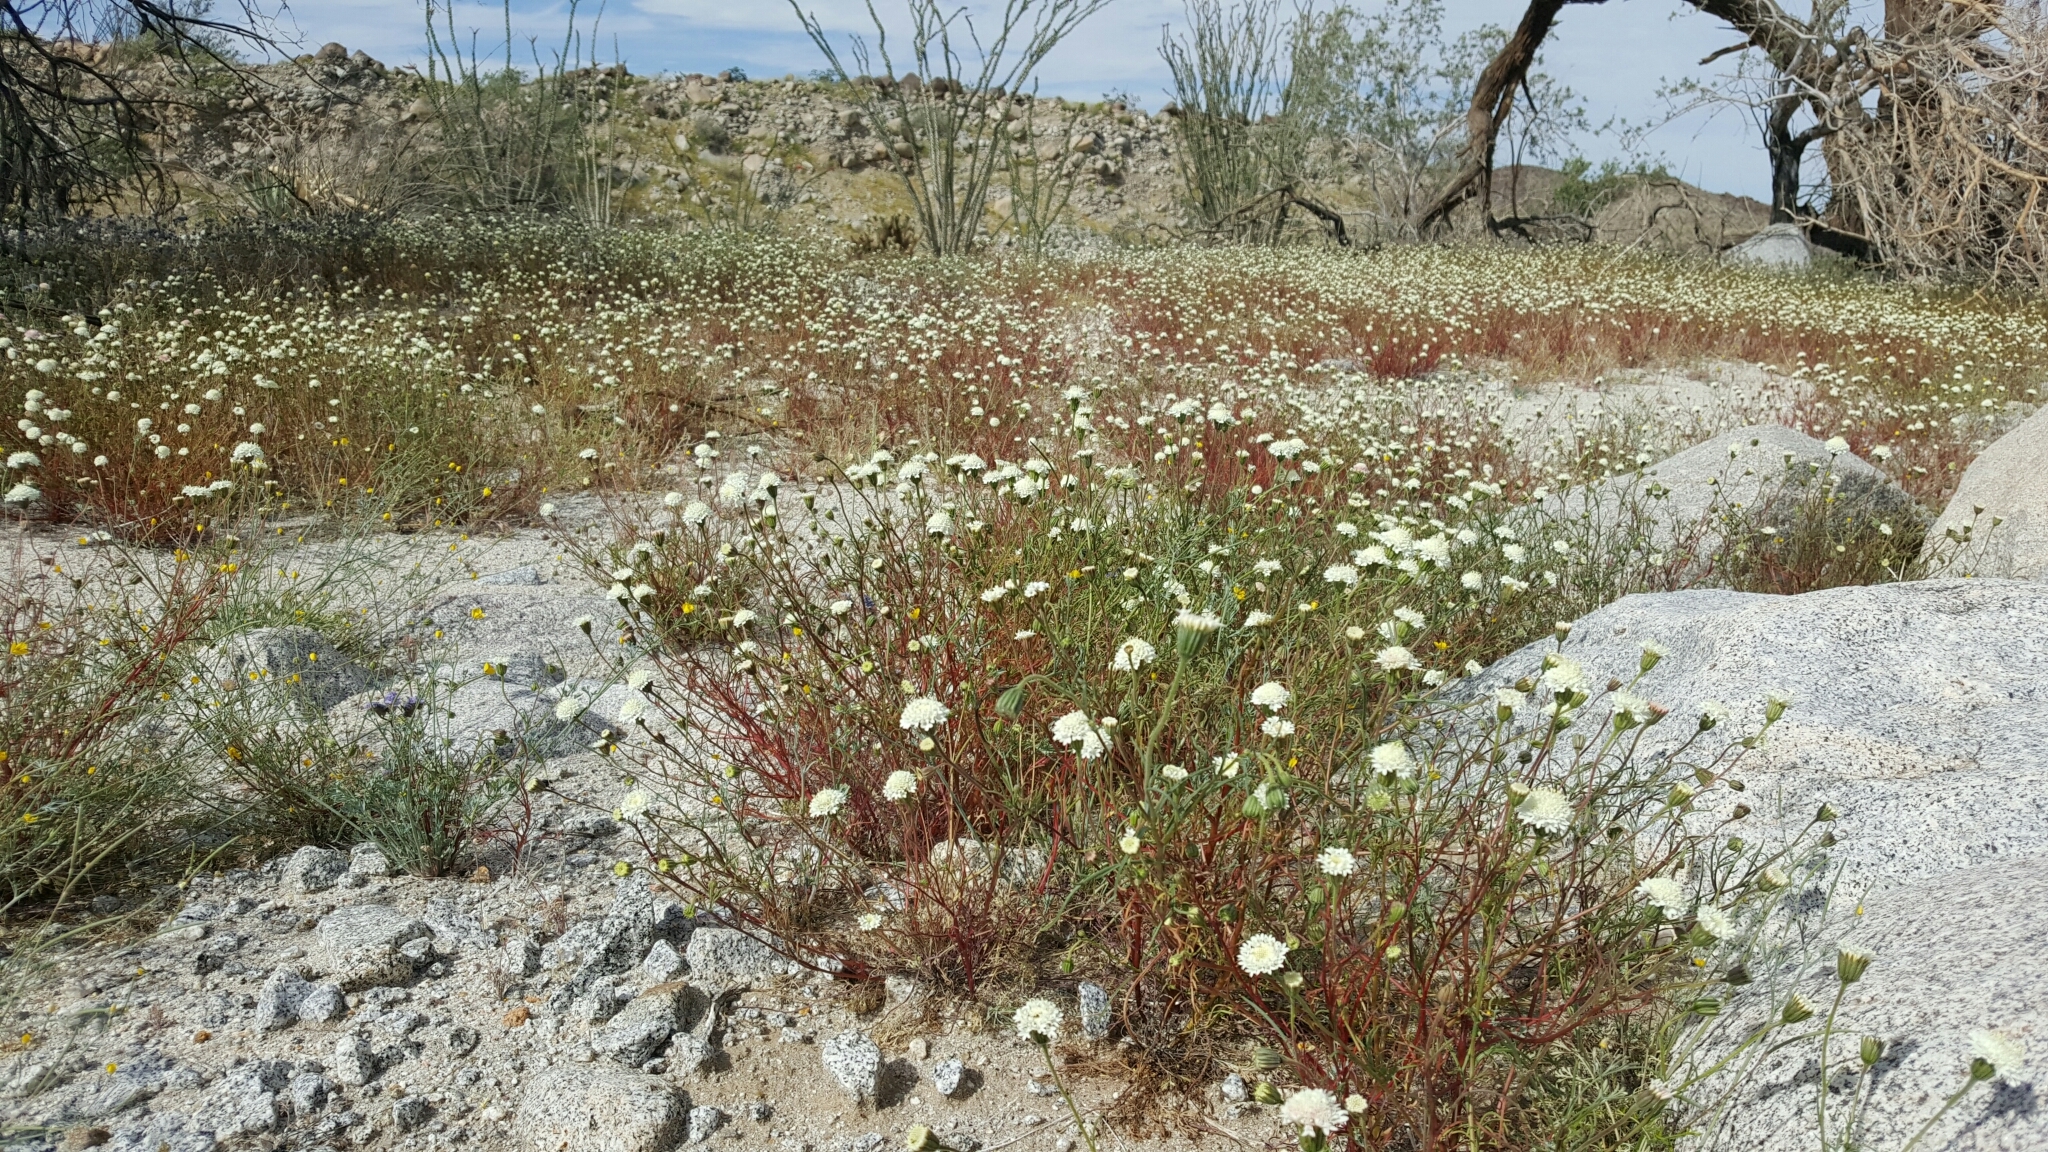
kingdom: Plantae
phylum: Tracheophyta
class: Magnoliopsida
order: Asterales
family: Asteraceae
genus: Chaenactis
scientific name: Chaenactis fremontii
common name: Fremont pincushion
